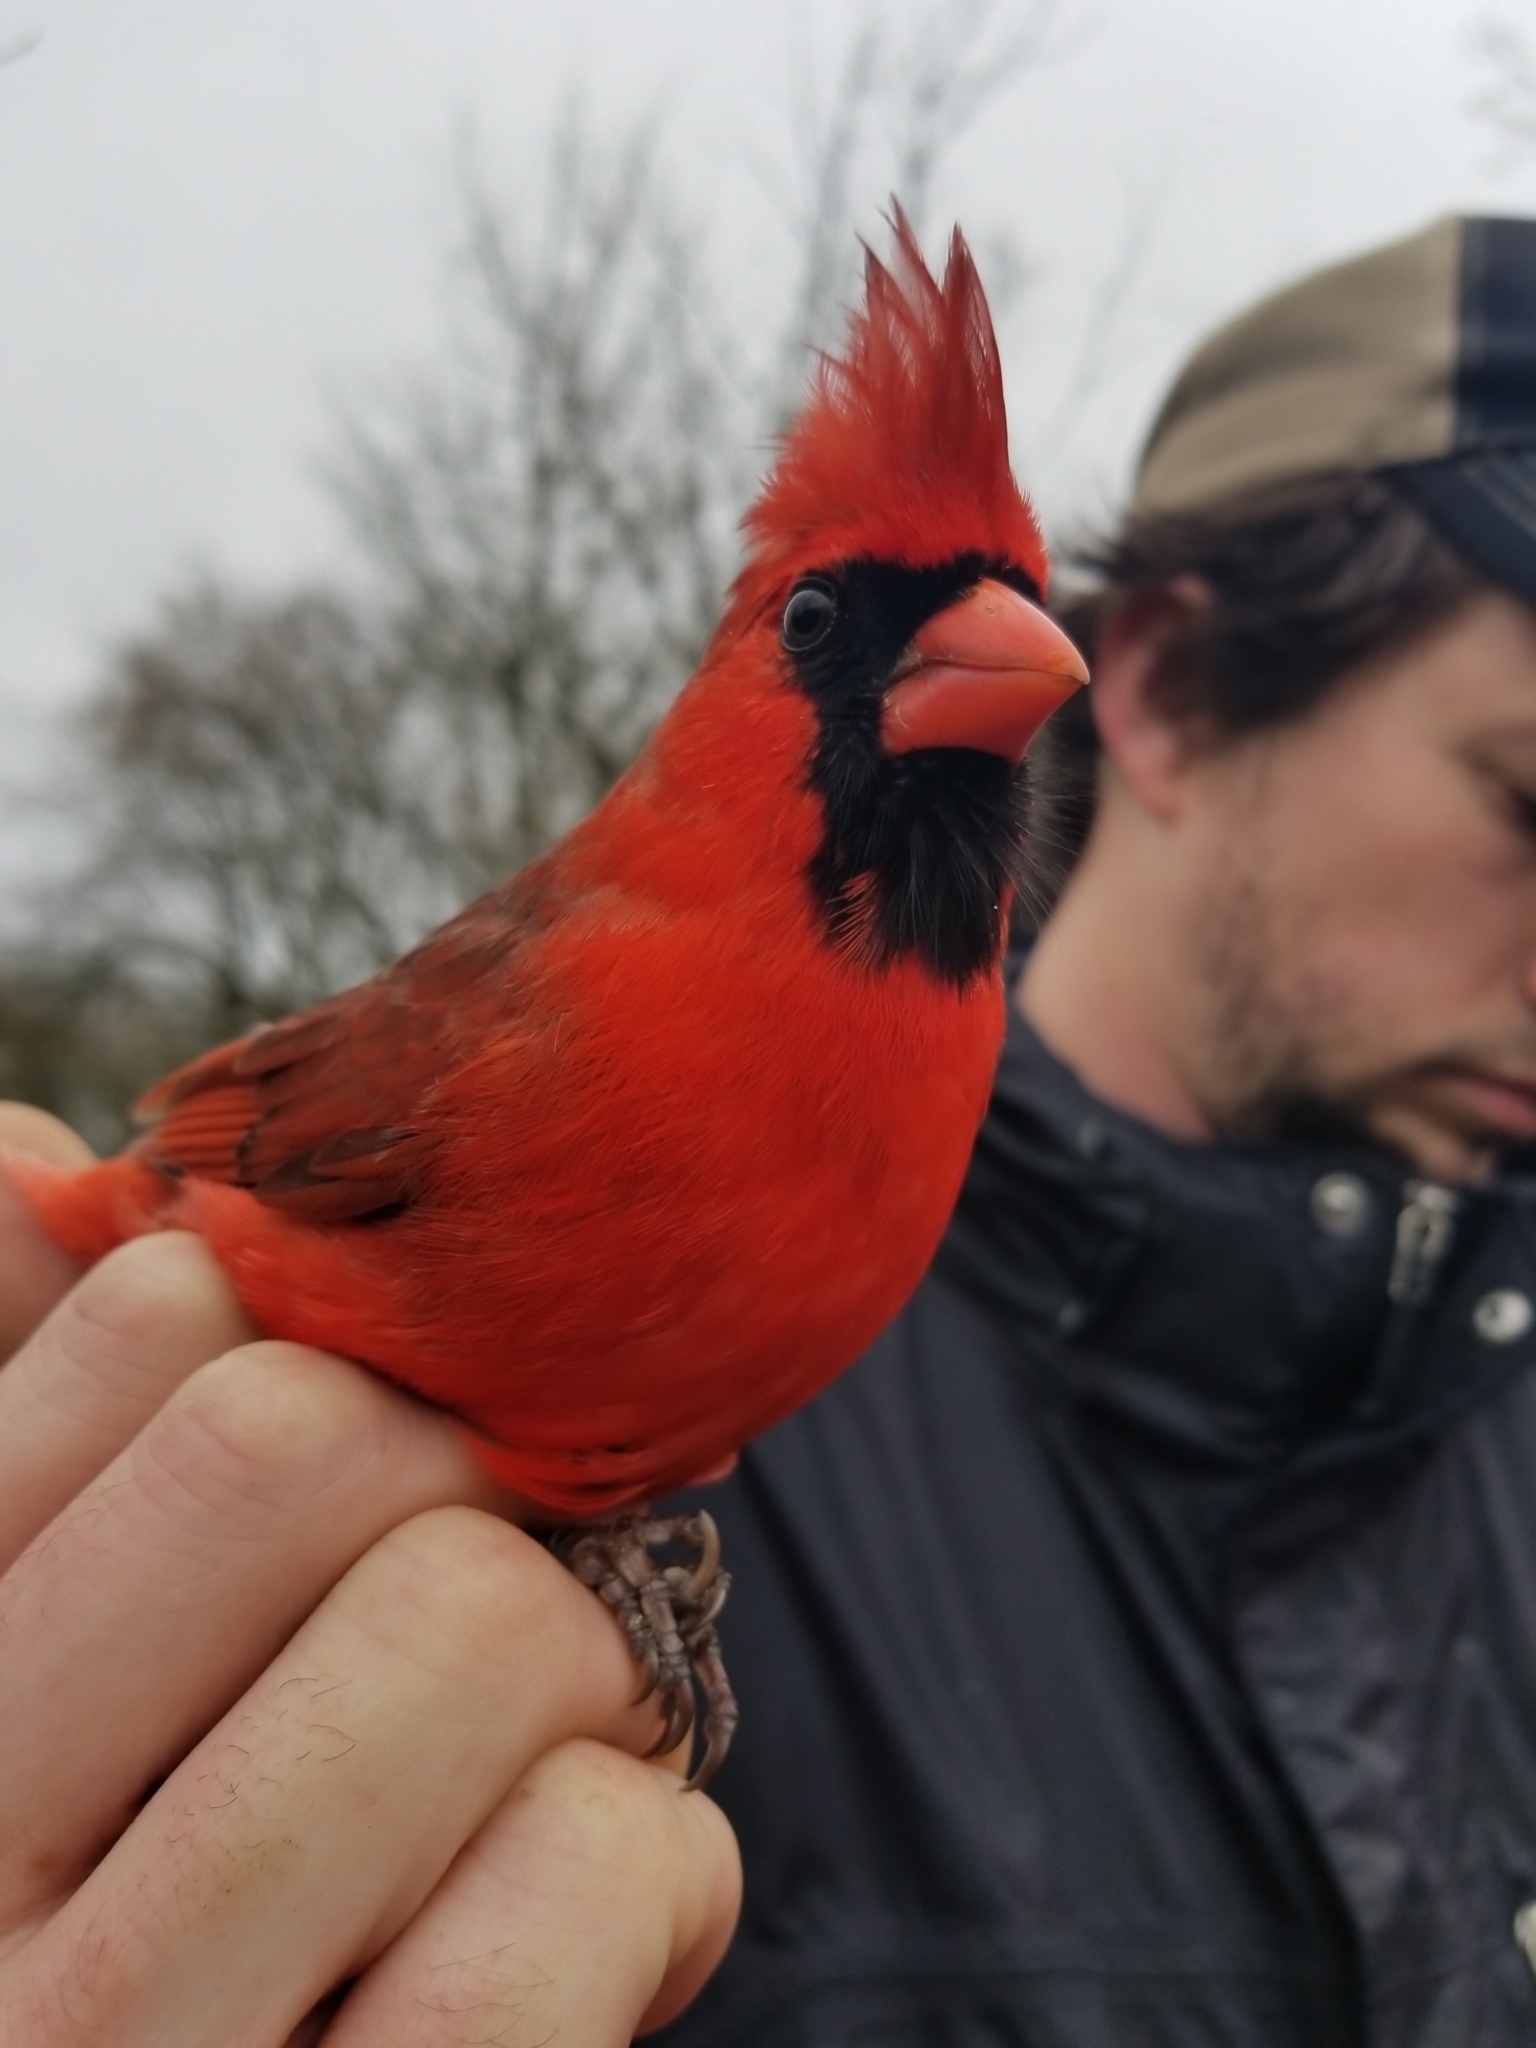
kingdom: Animalia
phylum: Chordata
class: Aves
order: Passeriformes
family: Cardinalidae
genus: Cardinalis
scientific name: Cardinalis cardinalis
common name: Northern cardinal
